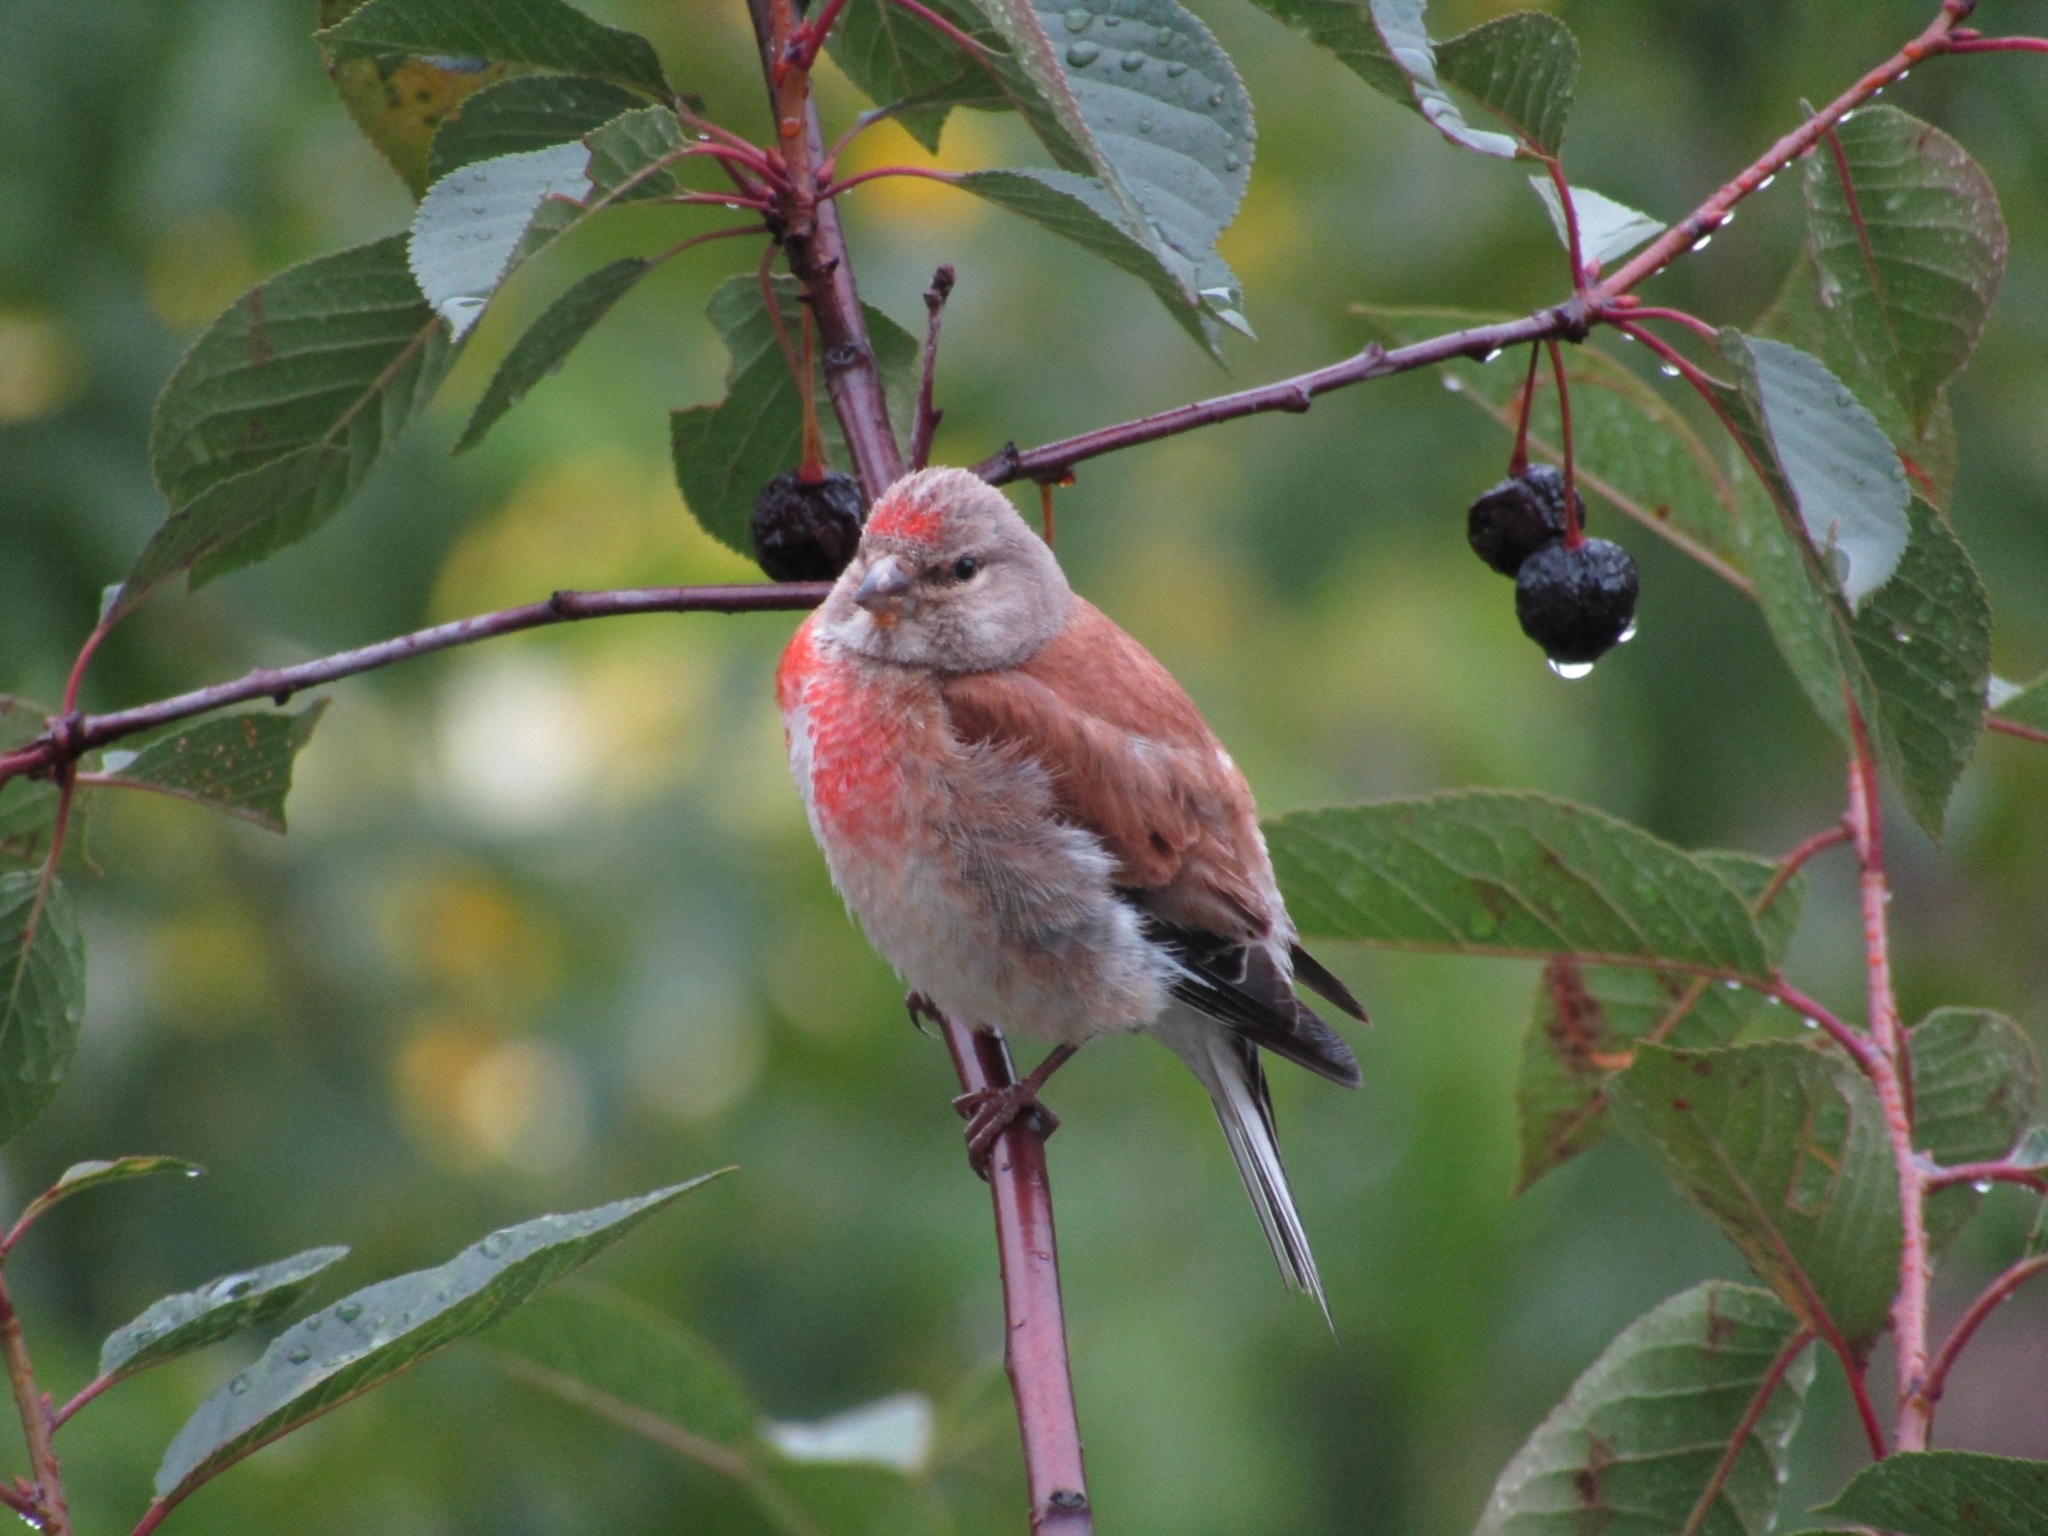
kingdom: Animalia
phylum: Chordata
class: Aves
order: Passeriformes
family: Fringillidae
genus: Linaria
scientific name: Linaria cannabina
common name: Common linnet
